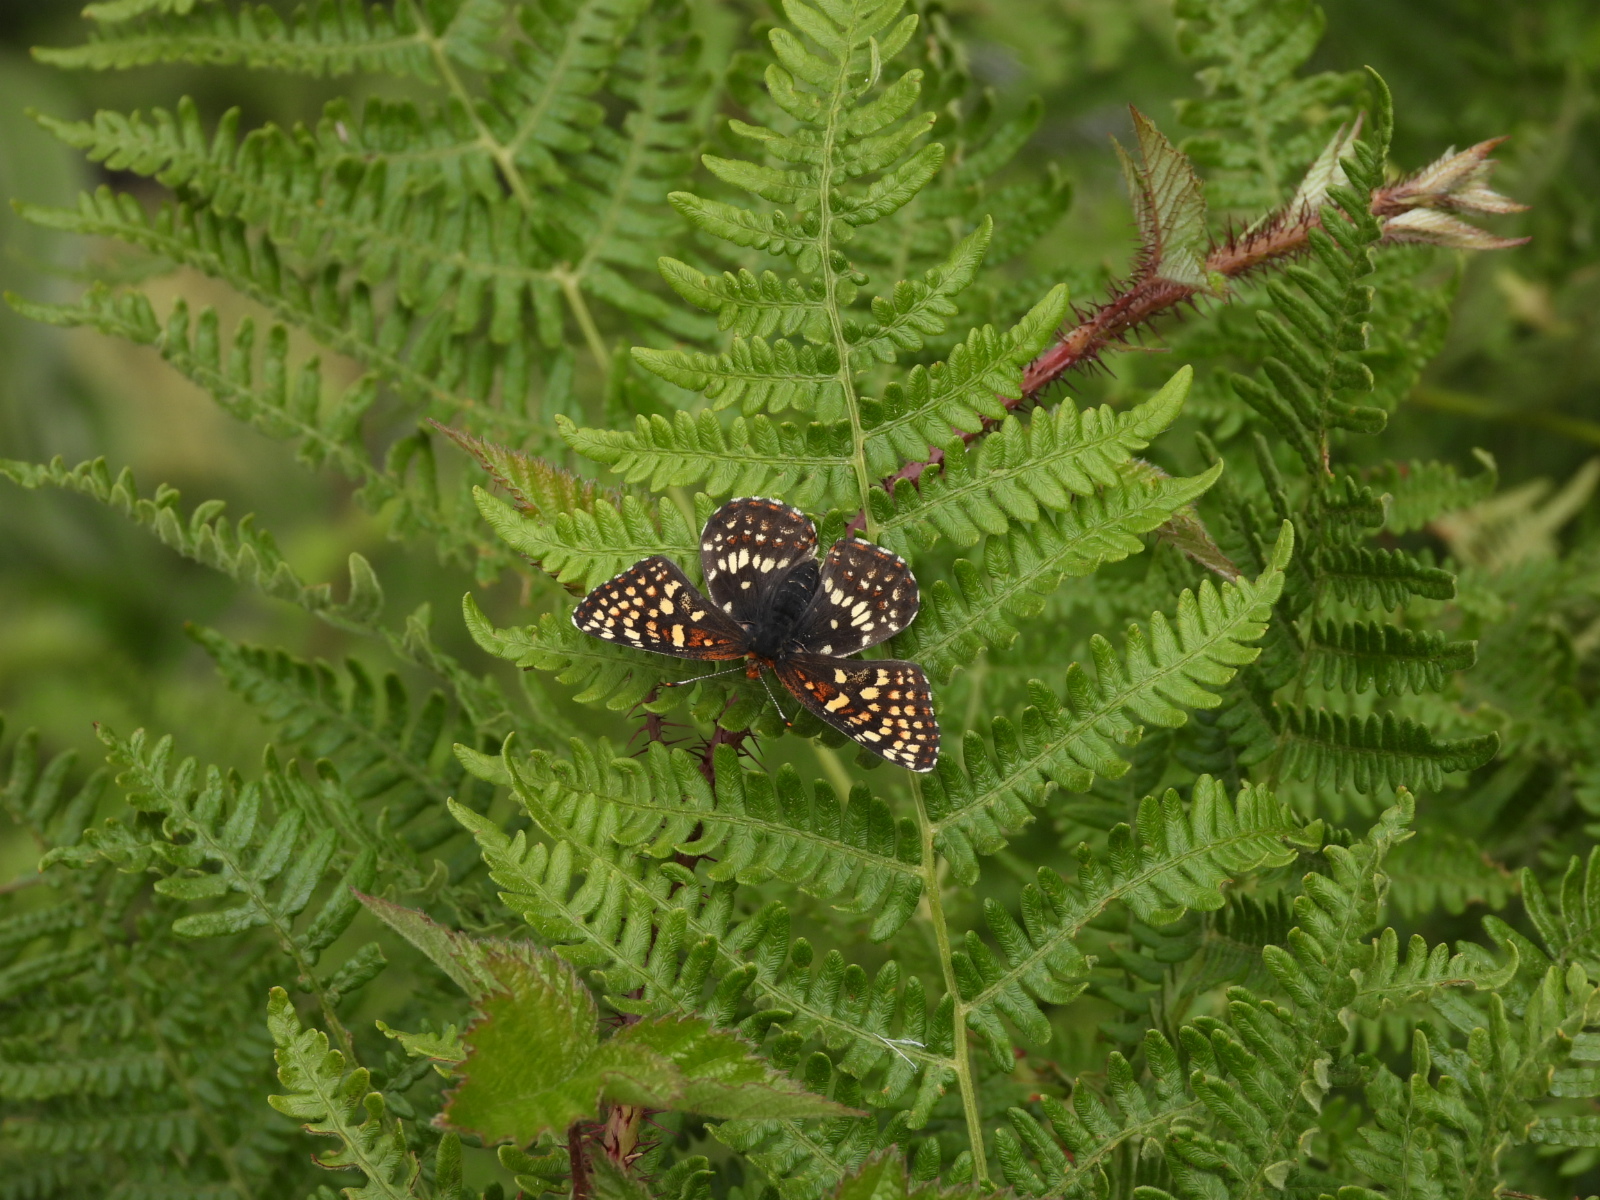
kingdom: Animalia
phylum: Arthropoda
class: Insecta
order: Lepidoptera
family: Nymphalidae
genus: Chlosyne
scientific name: Chlosyne palla
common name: Northern checkerspot
